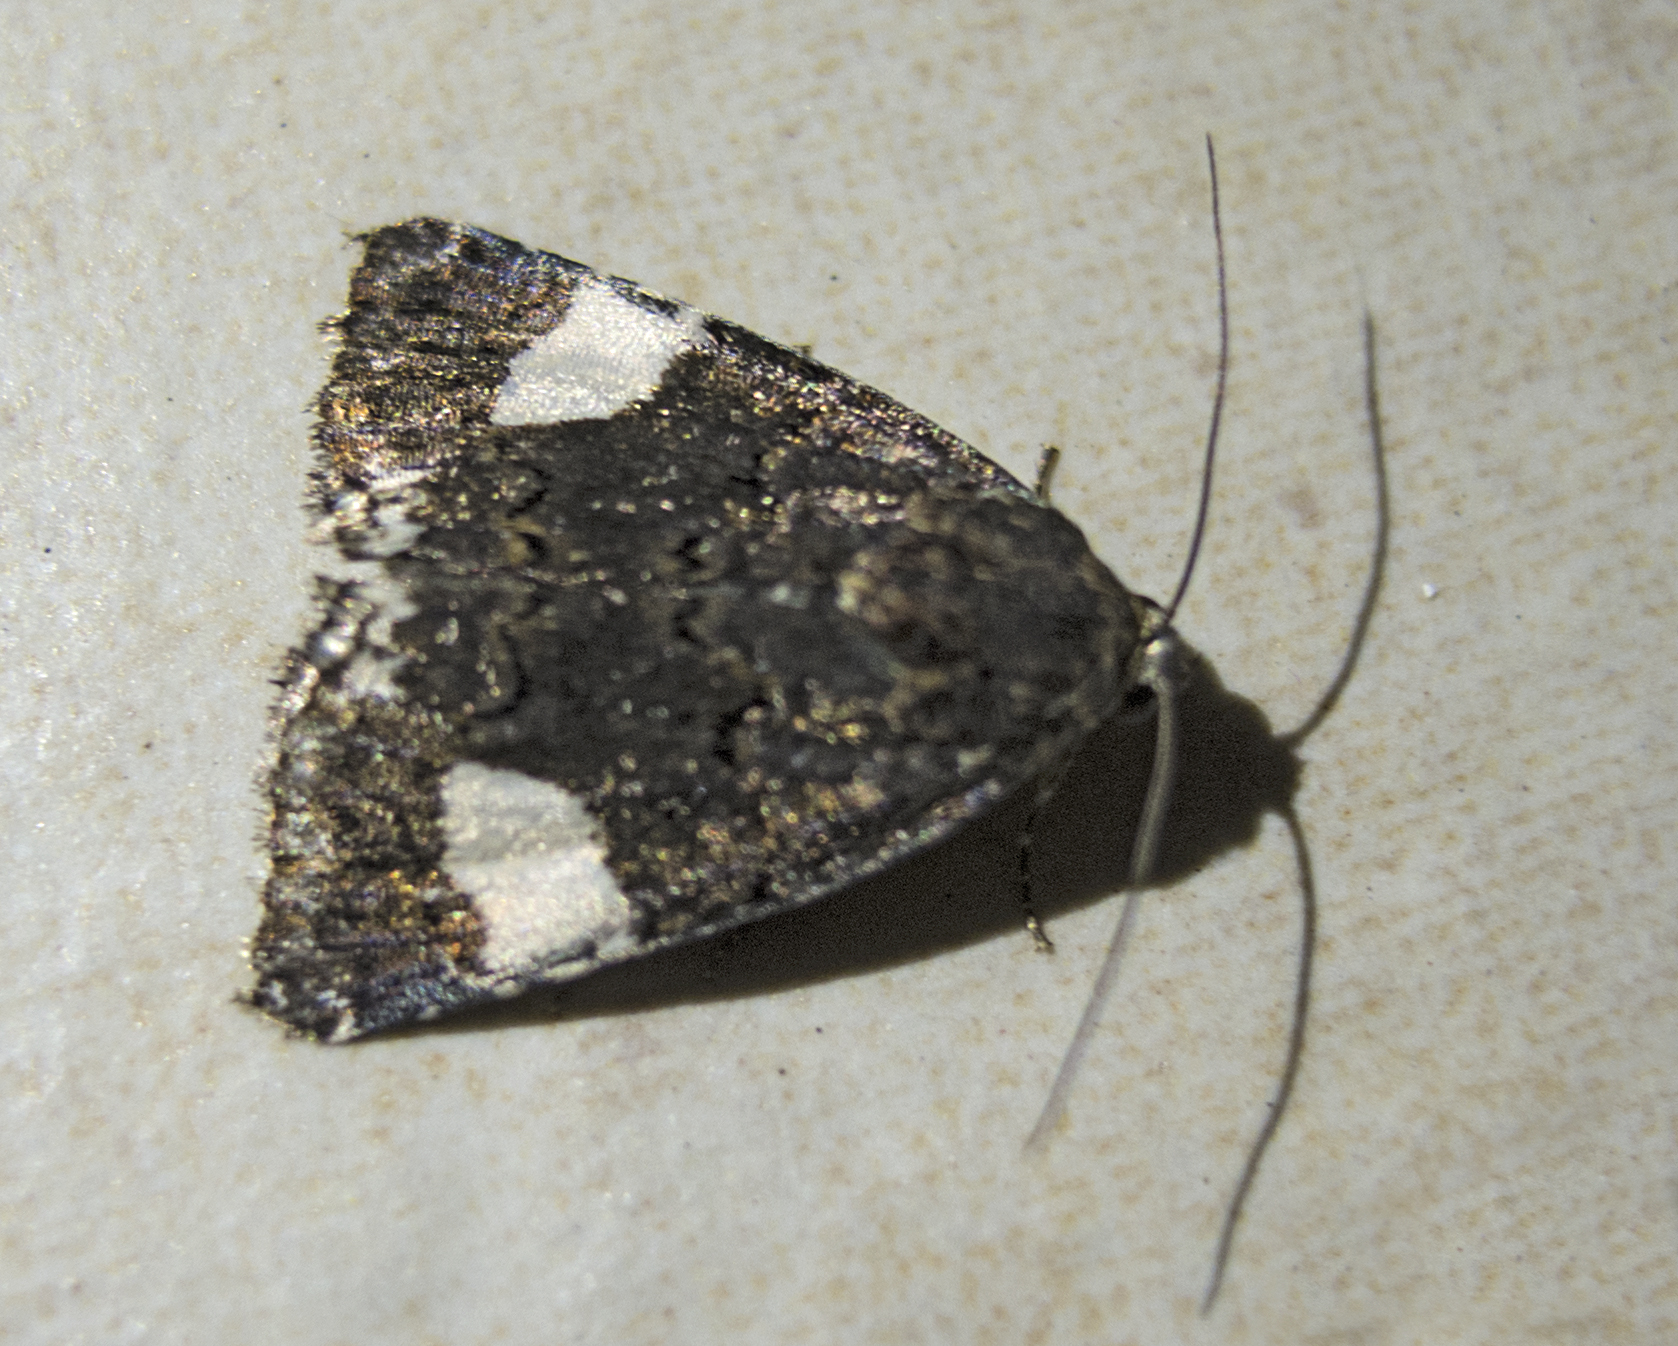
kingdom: Animalia
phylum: Arthropoda
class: Insecta
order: Lepidoptera
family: Erebidae
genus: Tyta
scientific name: Tyta luctuosa
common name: Four-spotted
